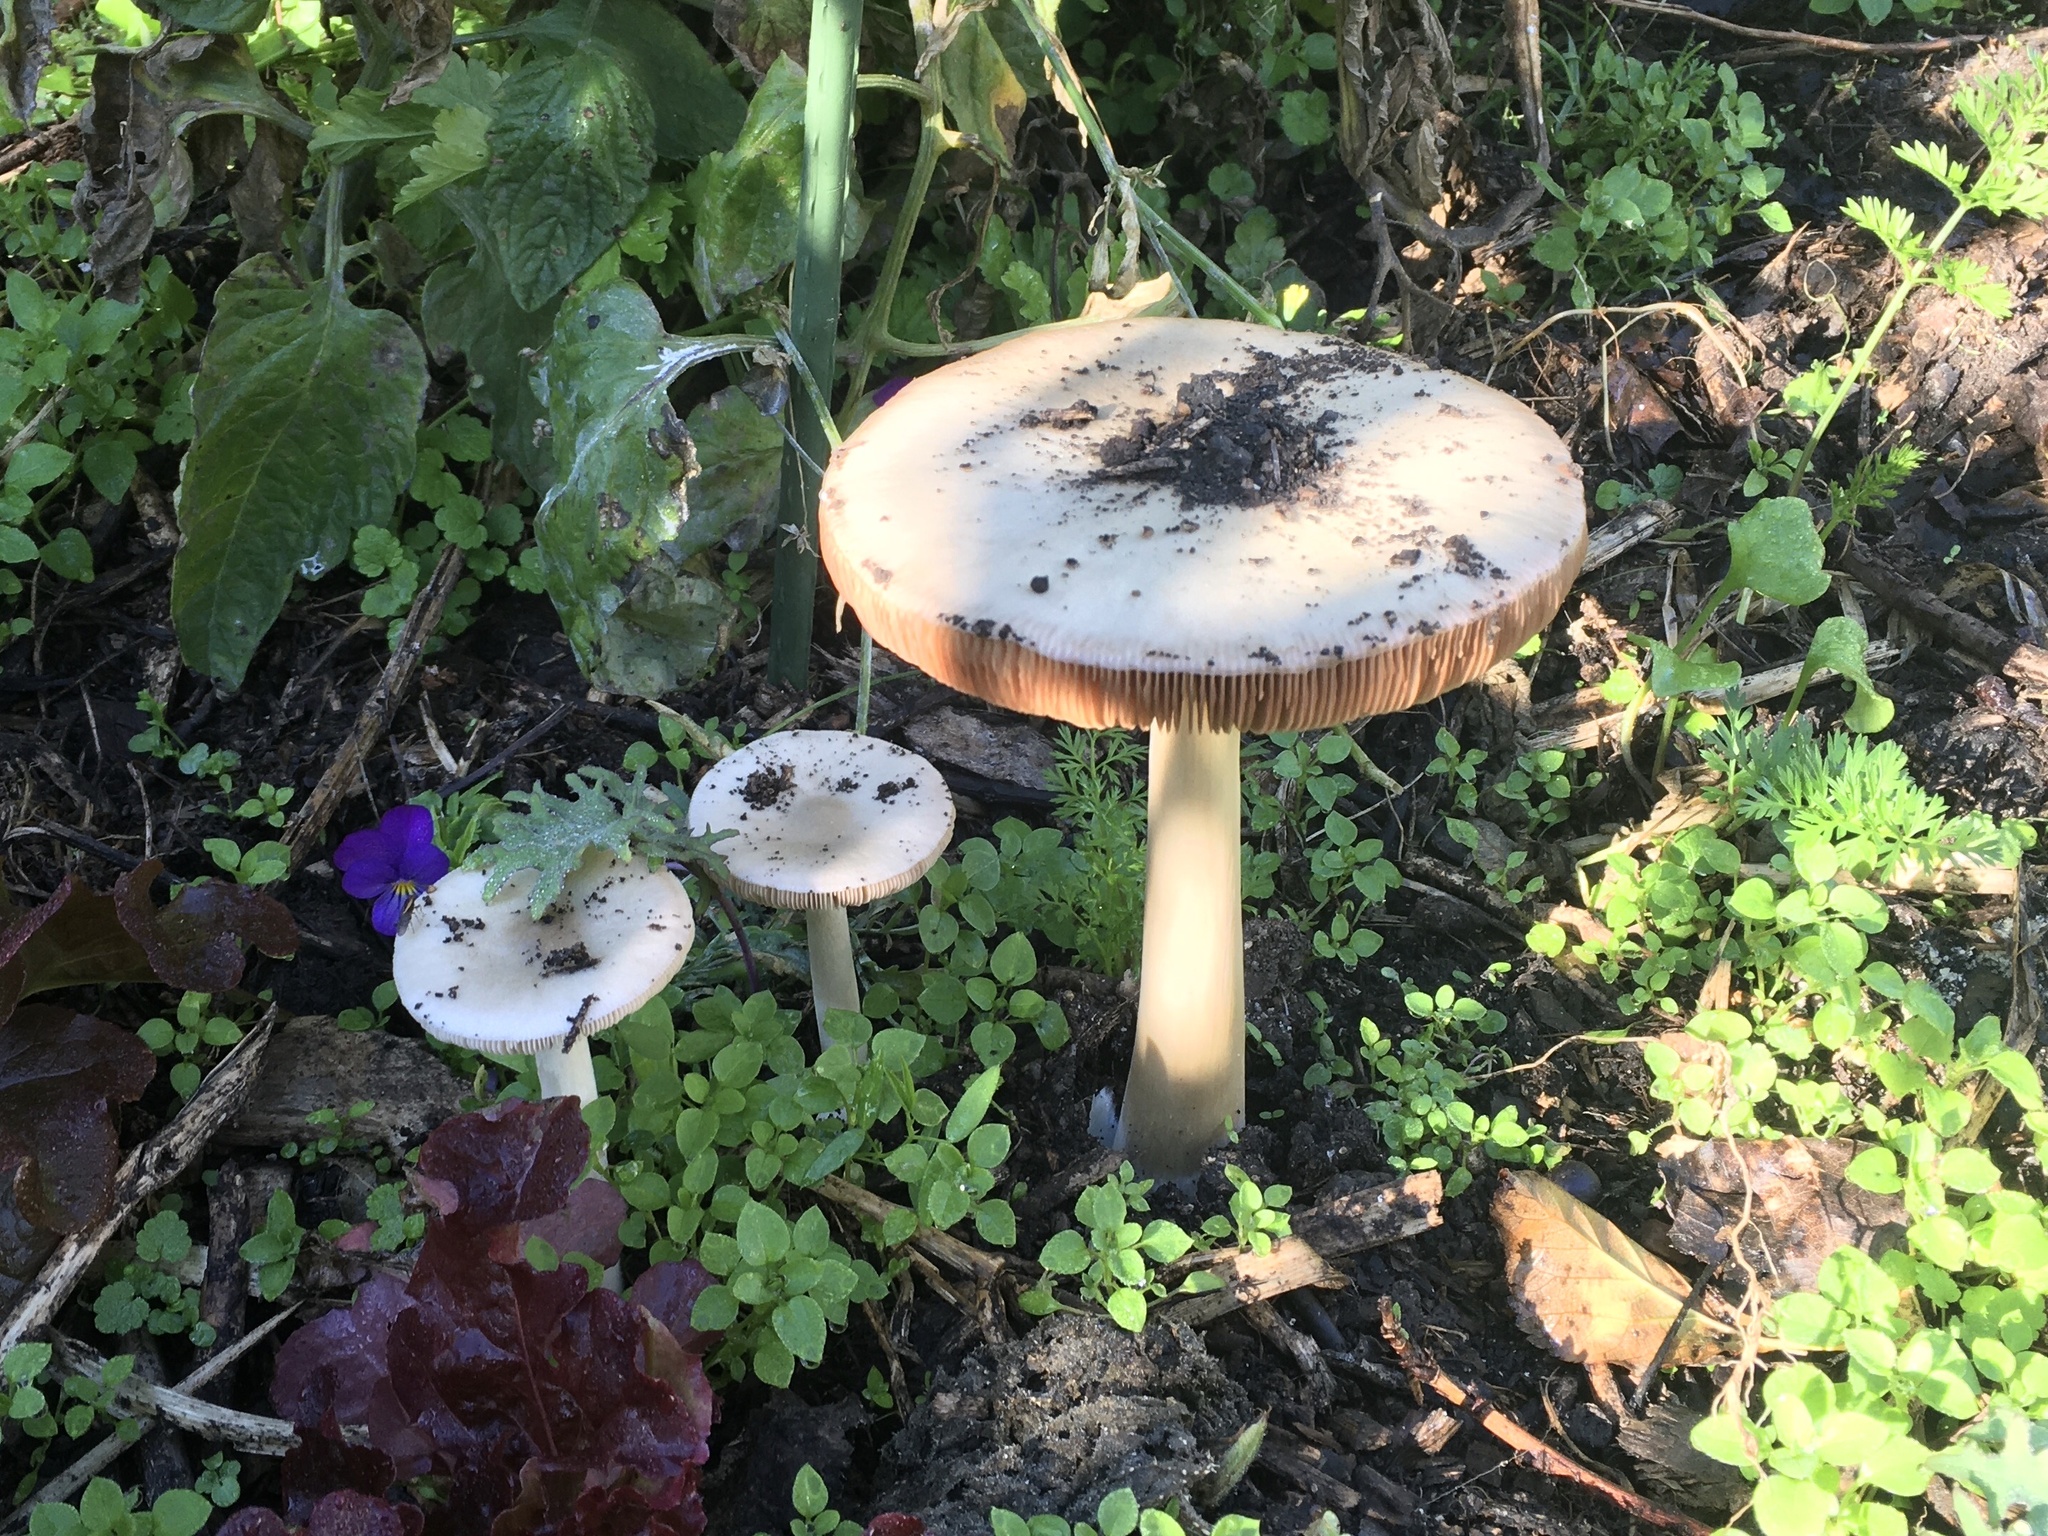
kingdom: Fungi
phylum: Basidiomycota
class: Agaricomycetes
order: Agaricales
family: Pluteaceae
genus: Volvopluteus
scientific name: Volvopluteus gloiocephalus
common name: Stubble rosegill
